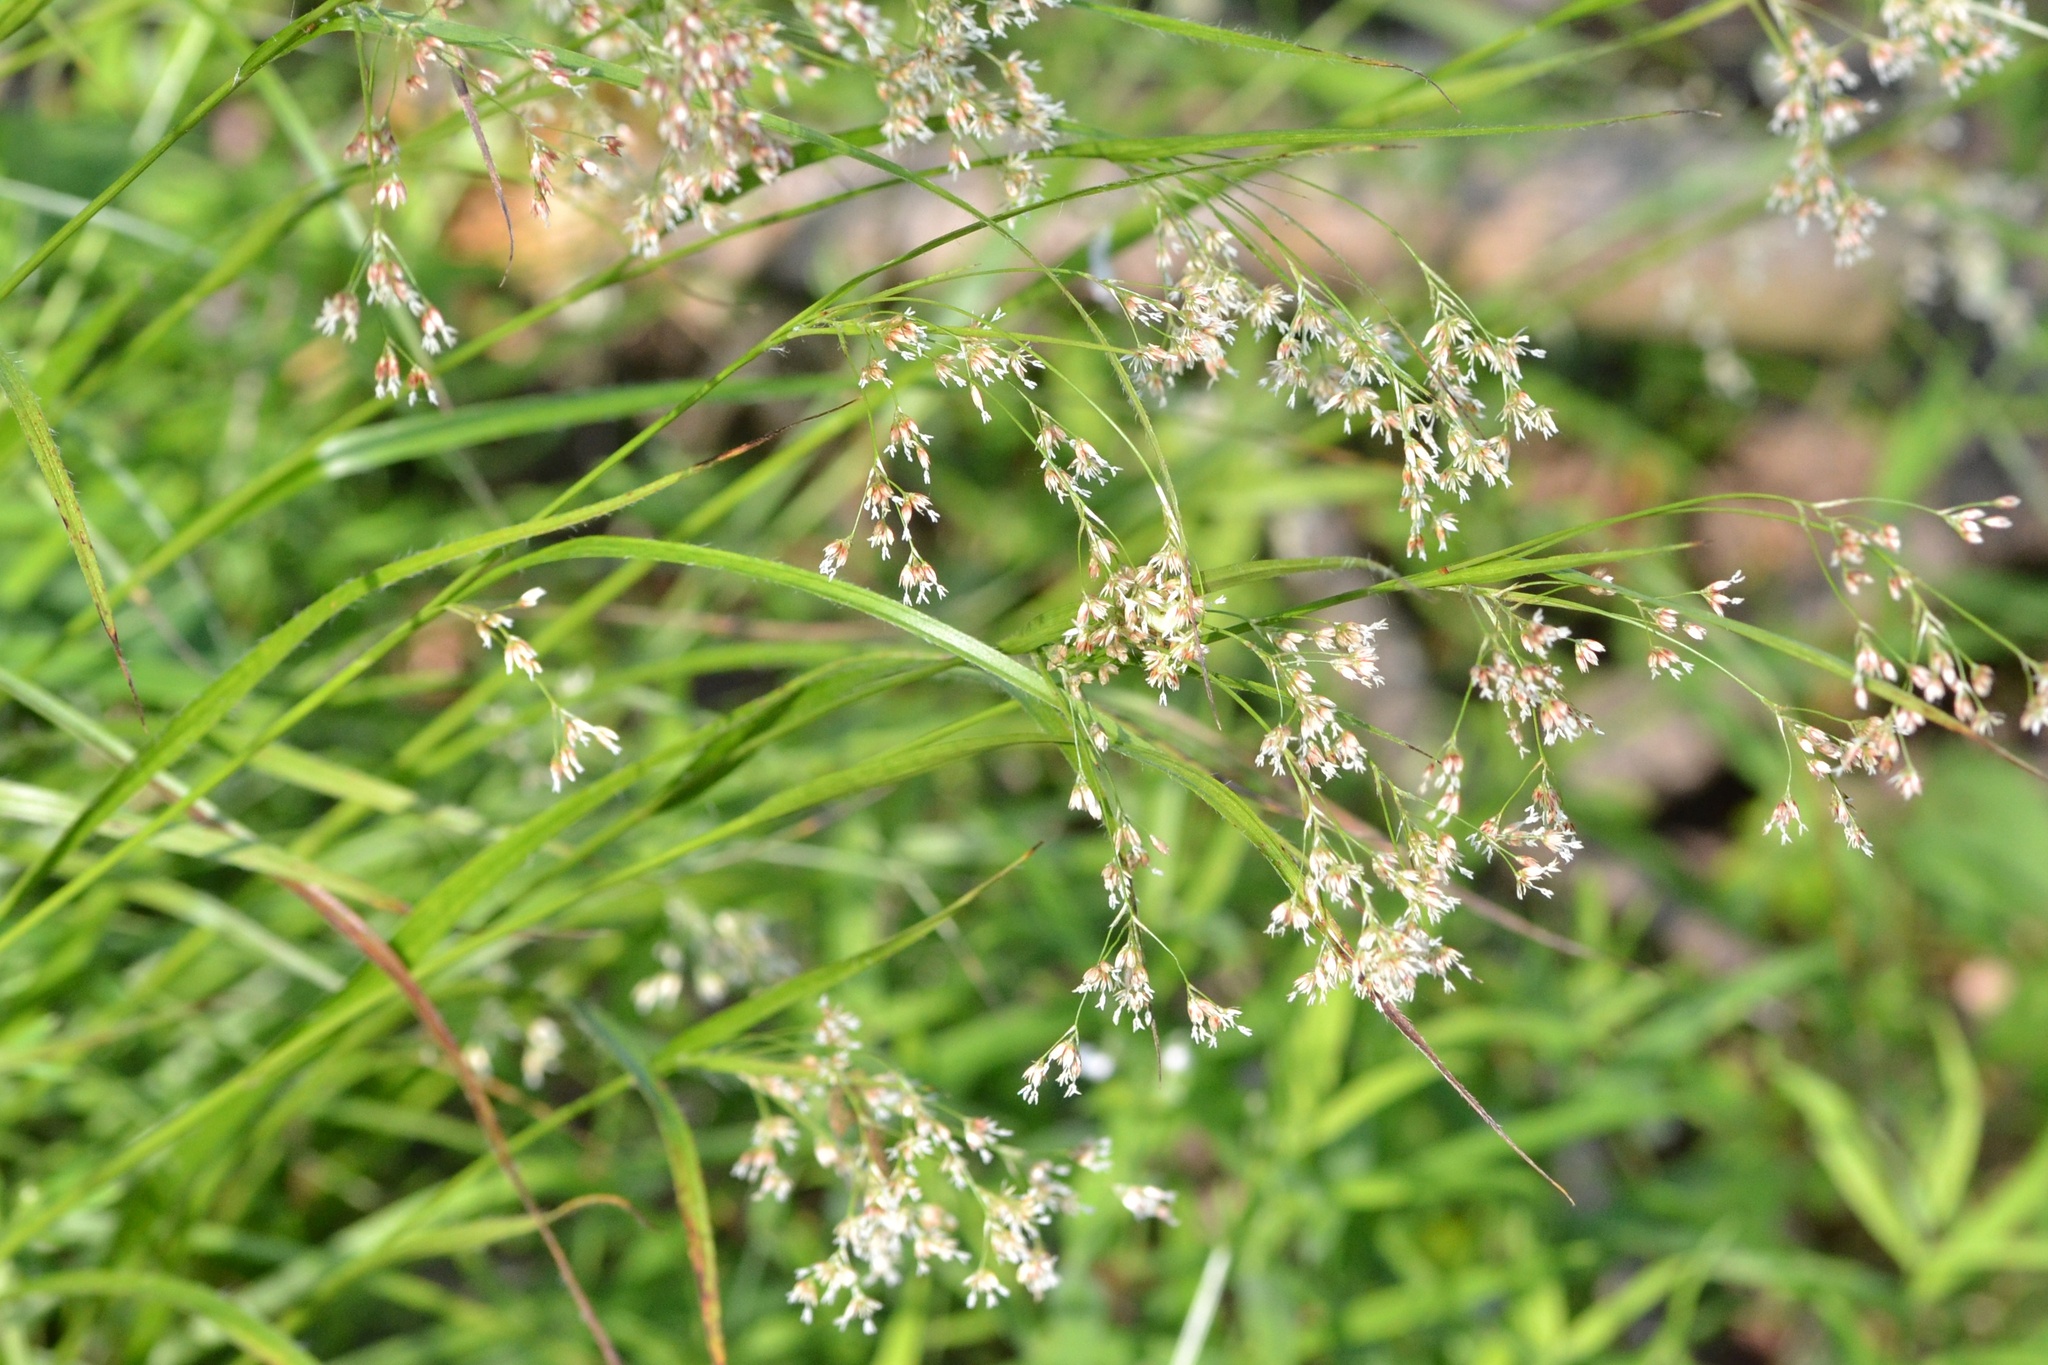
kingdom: Plantae
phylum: Tracheophyta
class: Liliopsida
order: Poales
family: Juncaceae
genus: Luzula
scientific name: Luzula luzuloides
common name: White wood-rush
